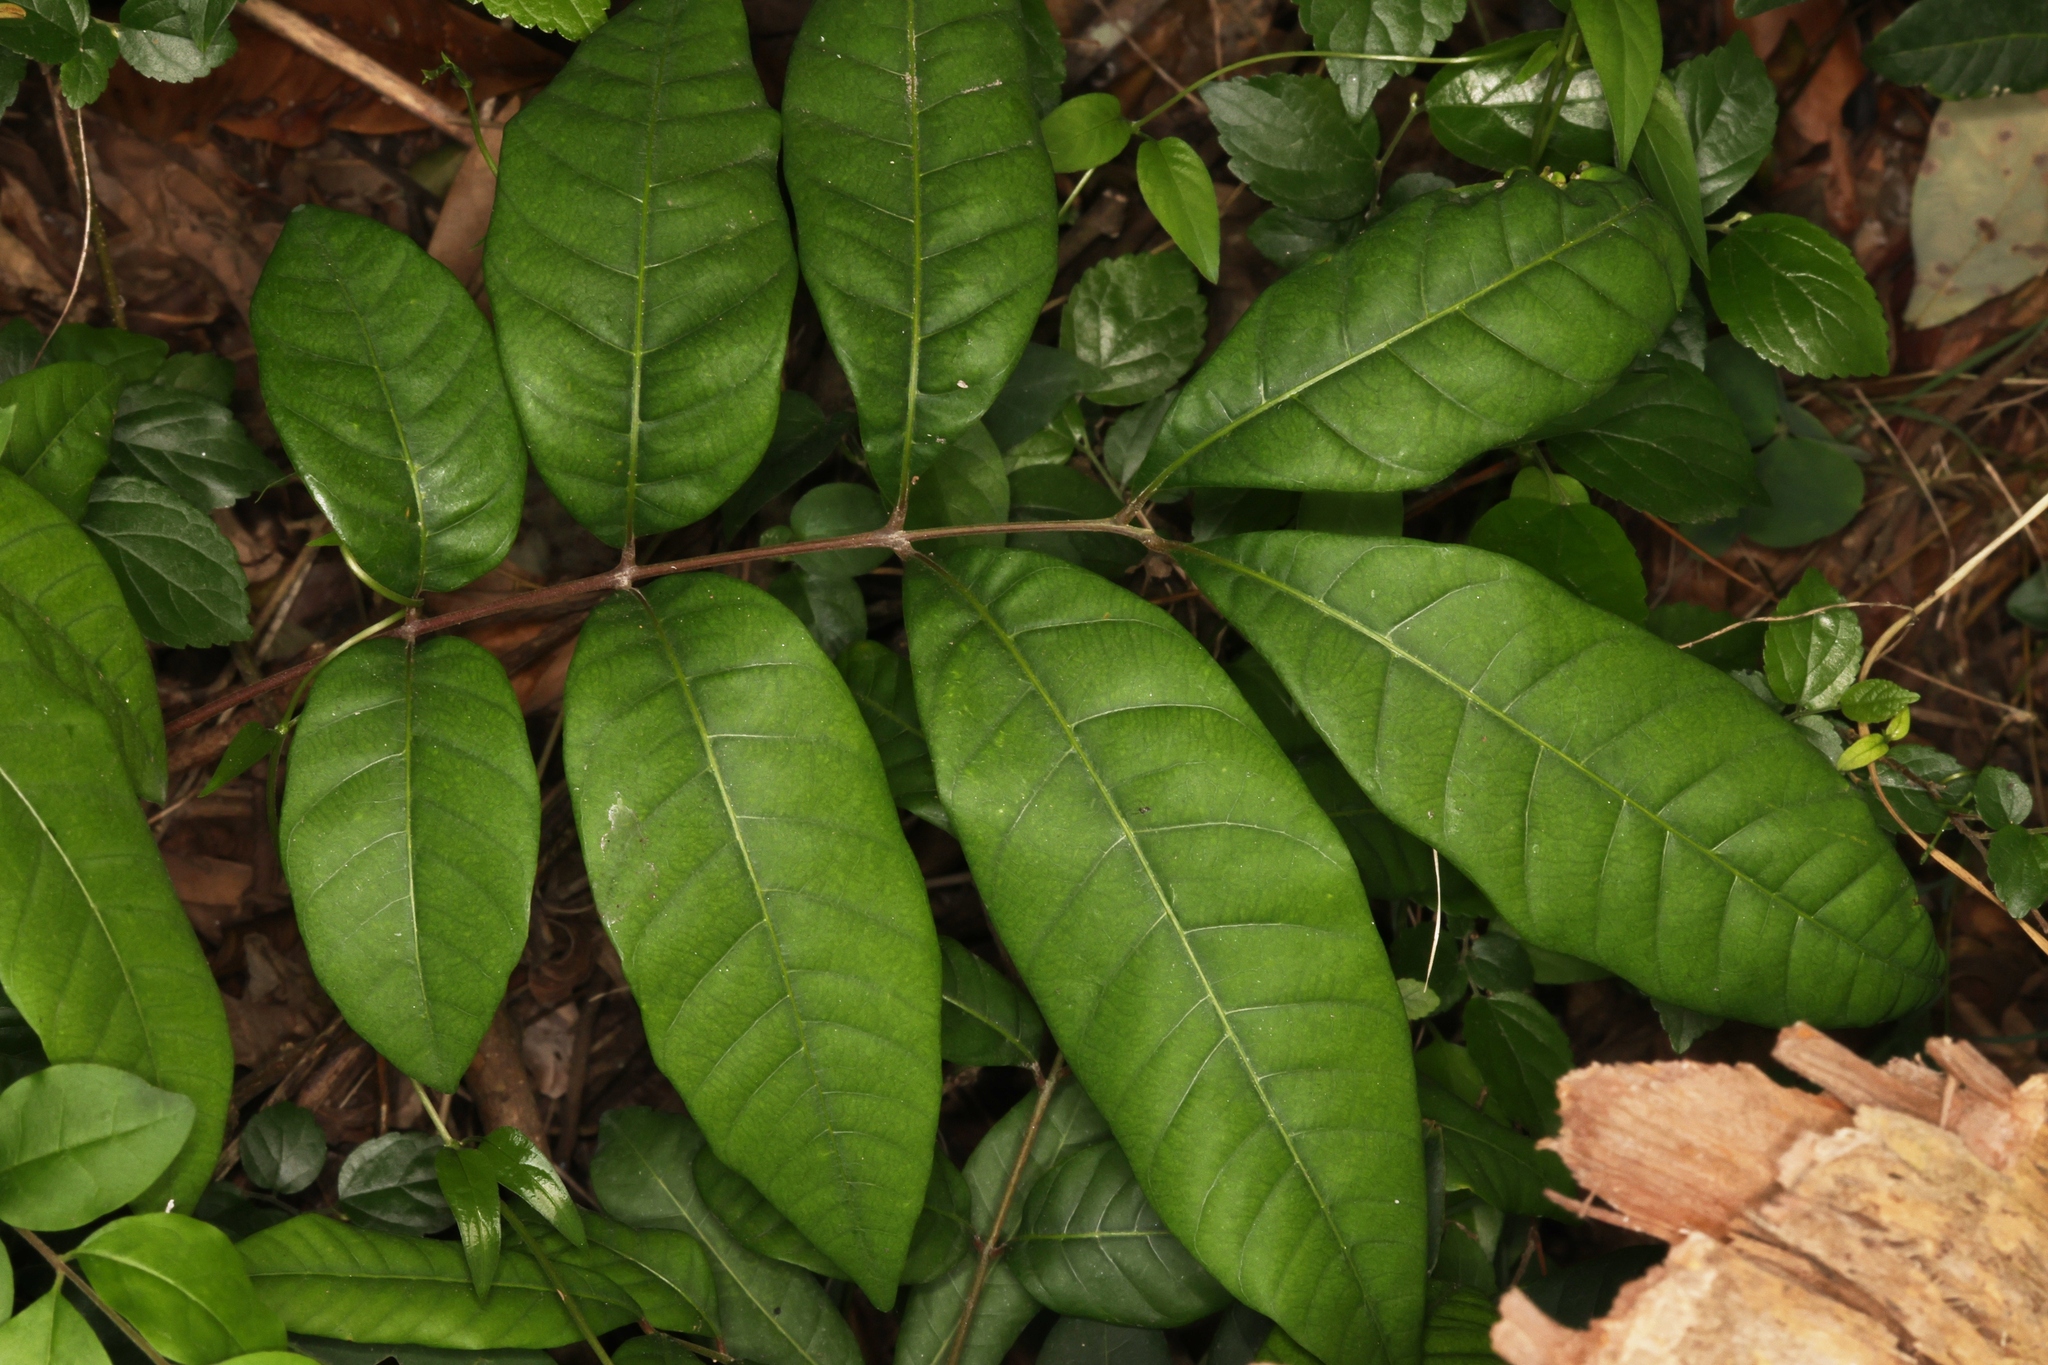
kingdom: Plantae
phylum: Tracheophyta
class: Magnoliopsida
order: Sapindales
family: Sapindaceae
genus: Dimocarpus
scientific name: Dimocarpus longan
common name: Longan
